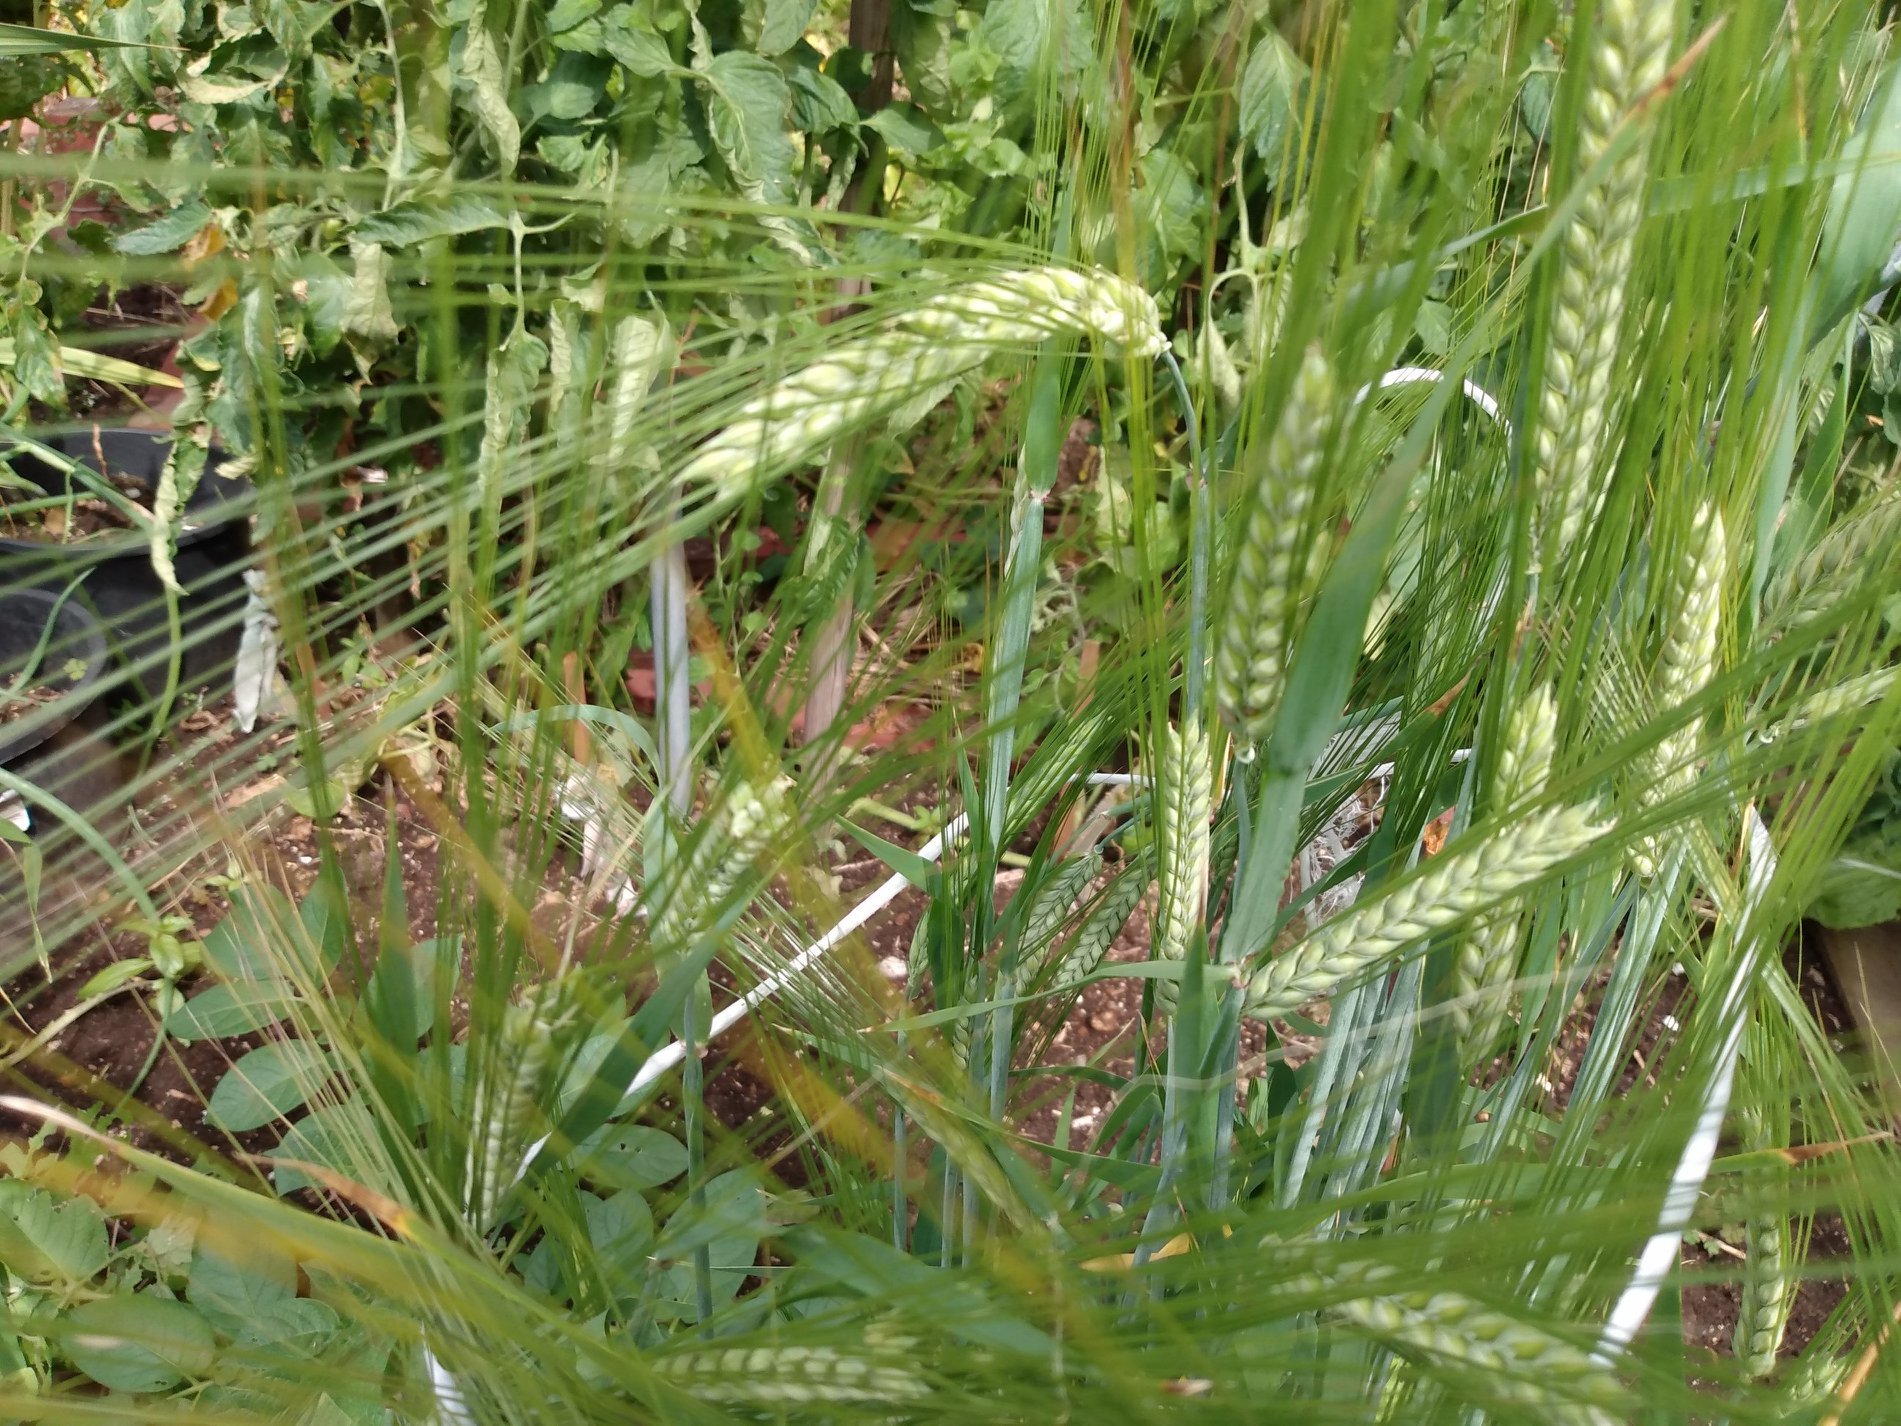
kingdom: Plantae
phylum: Tracheophyta
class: Liliopsida
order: Poales
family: Poaceae
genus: Hordeum
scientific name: Hordeum distichon
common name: Two-rowed barley
